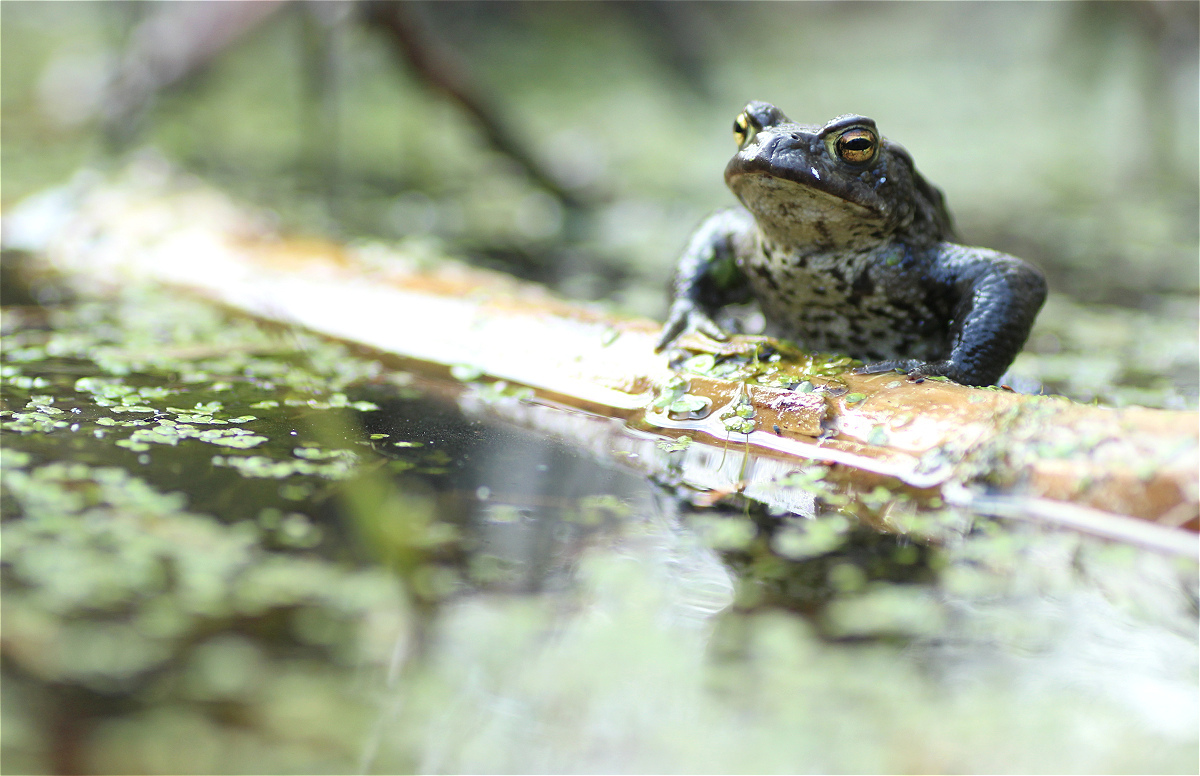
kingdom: Animalia
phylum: Chordata
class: Amphibia
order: Anura
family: Bufonidae
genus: Bufo
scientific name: Bufo bufo
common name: Common toad
